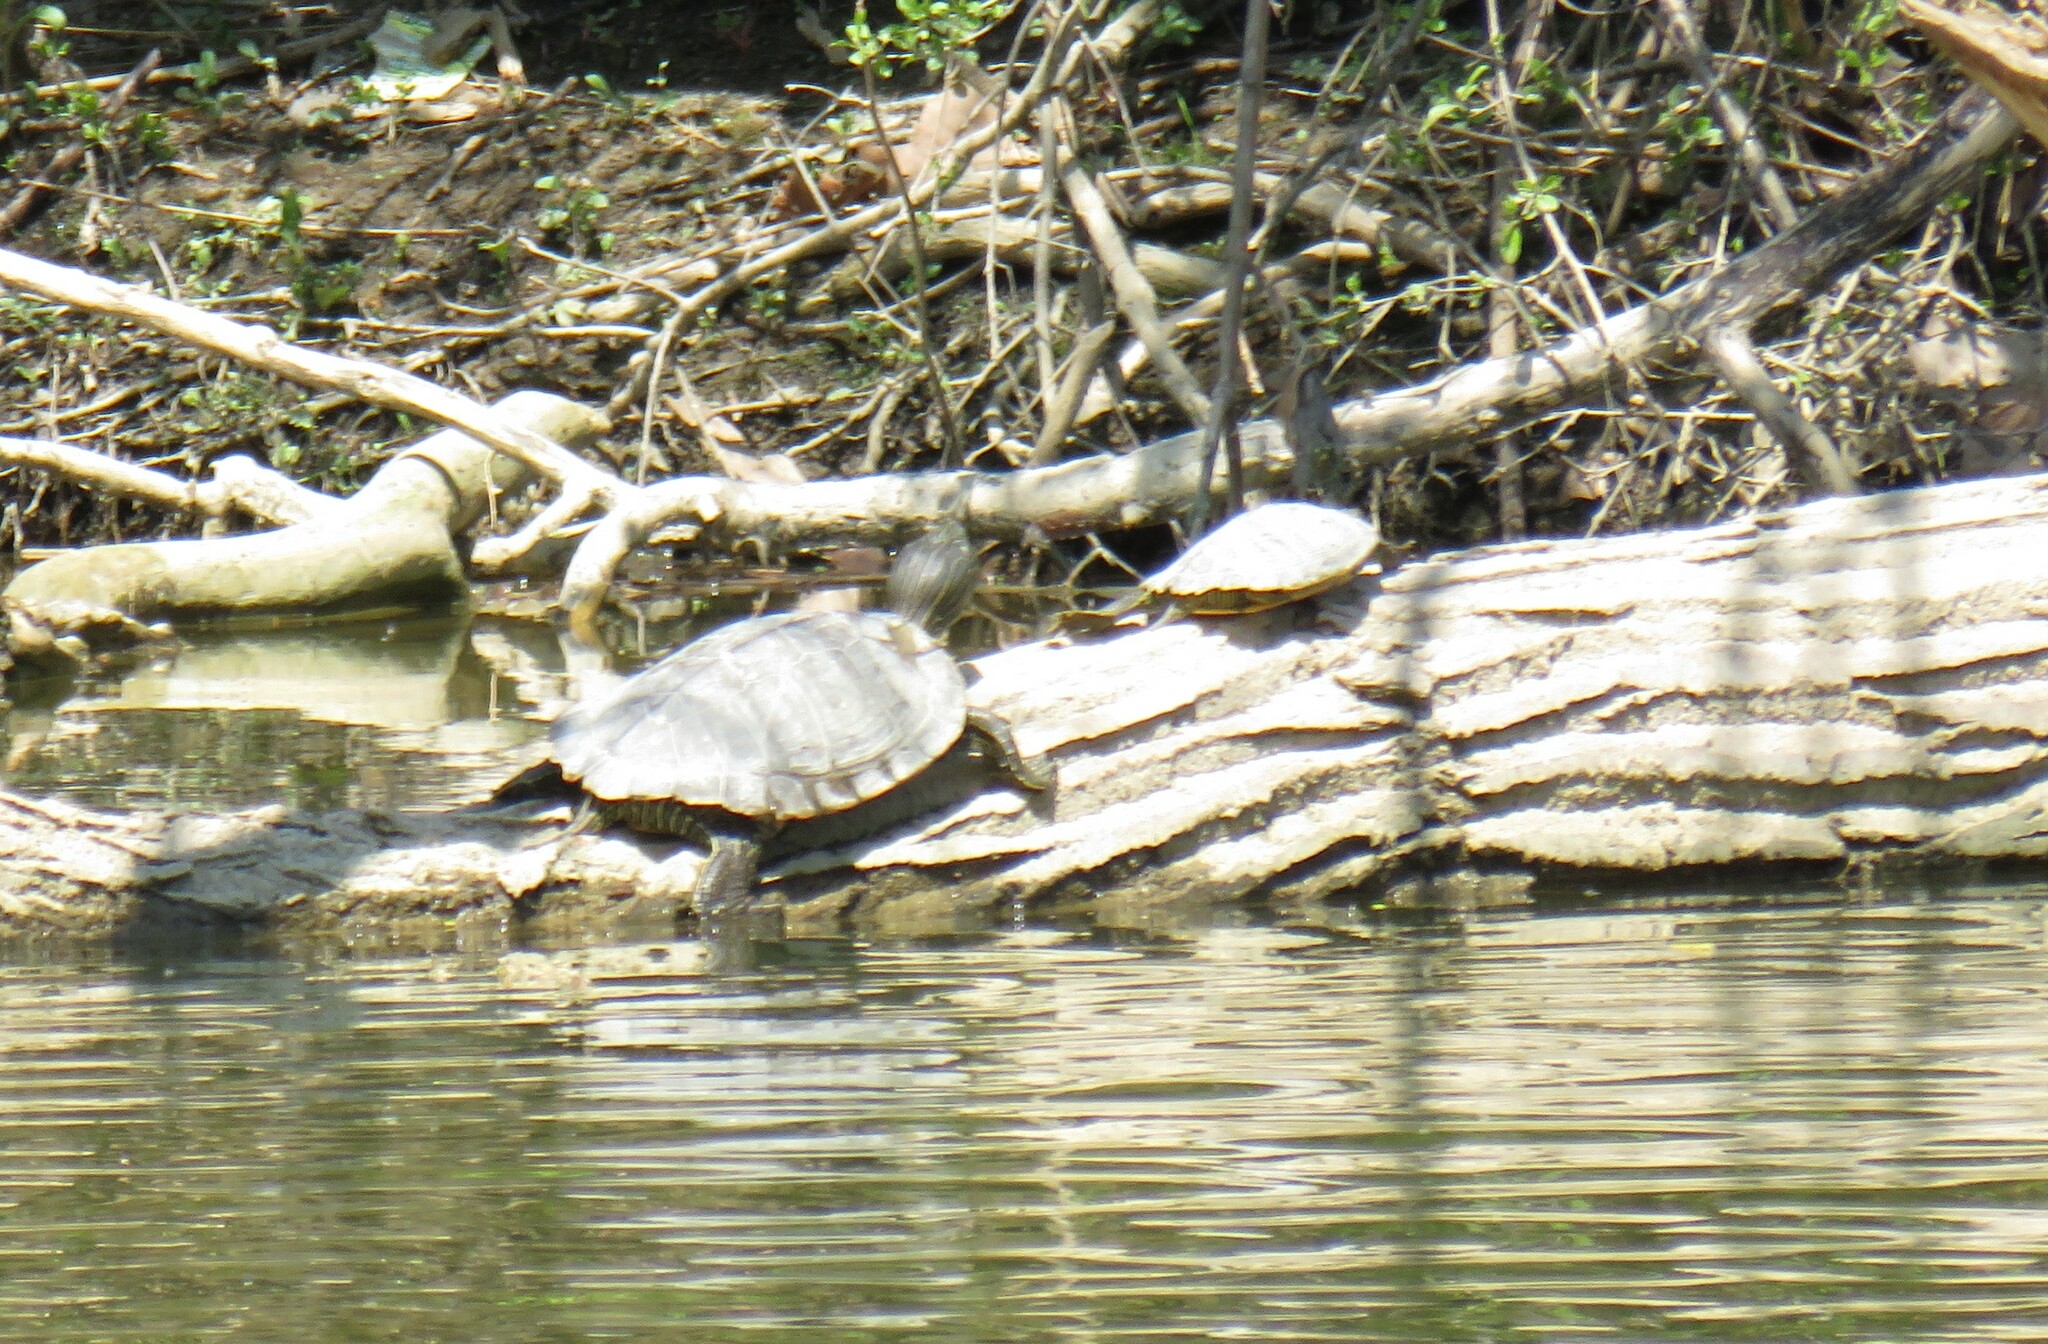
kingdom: Animalia
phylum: Chordata
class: Testudines
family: Emydidae
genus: Graptemys
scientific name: Graptemys geographica
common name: Common map turtle
